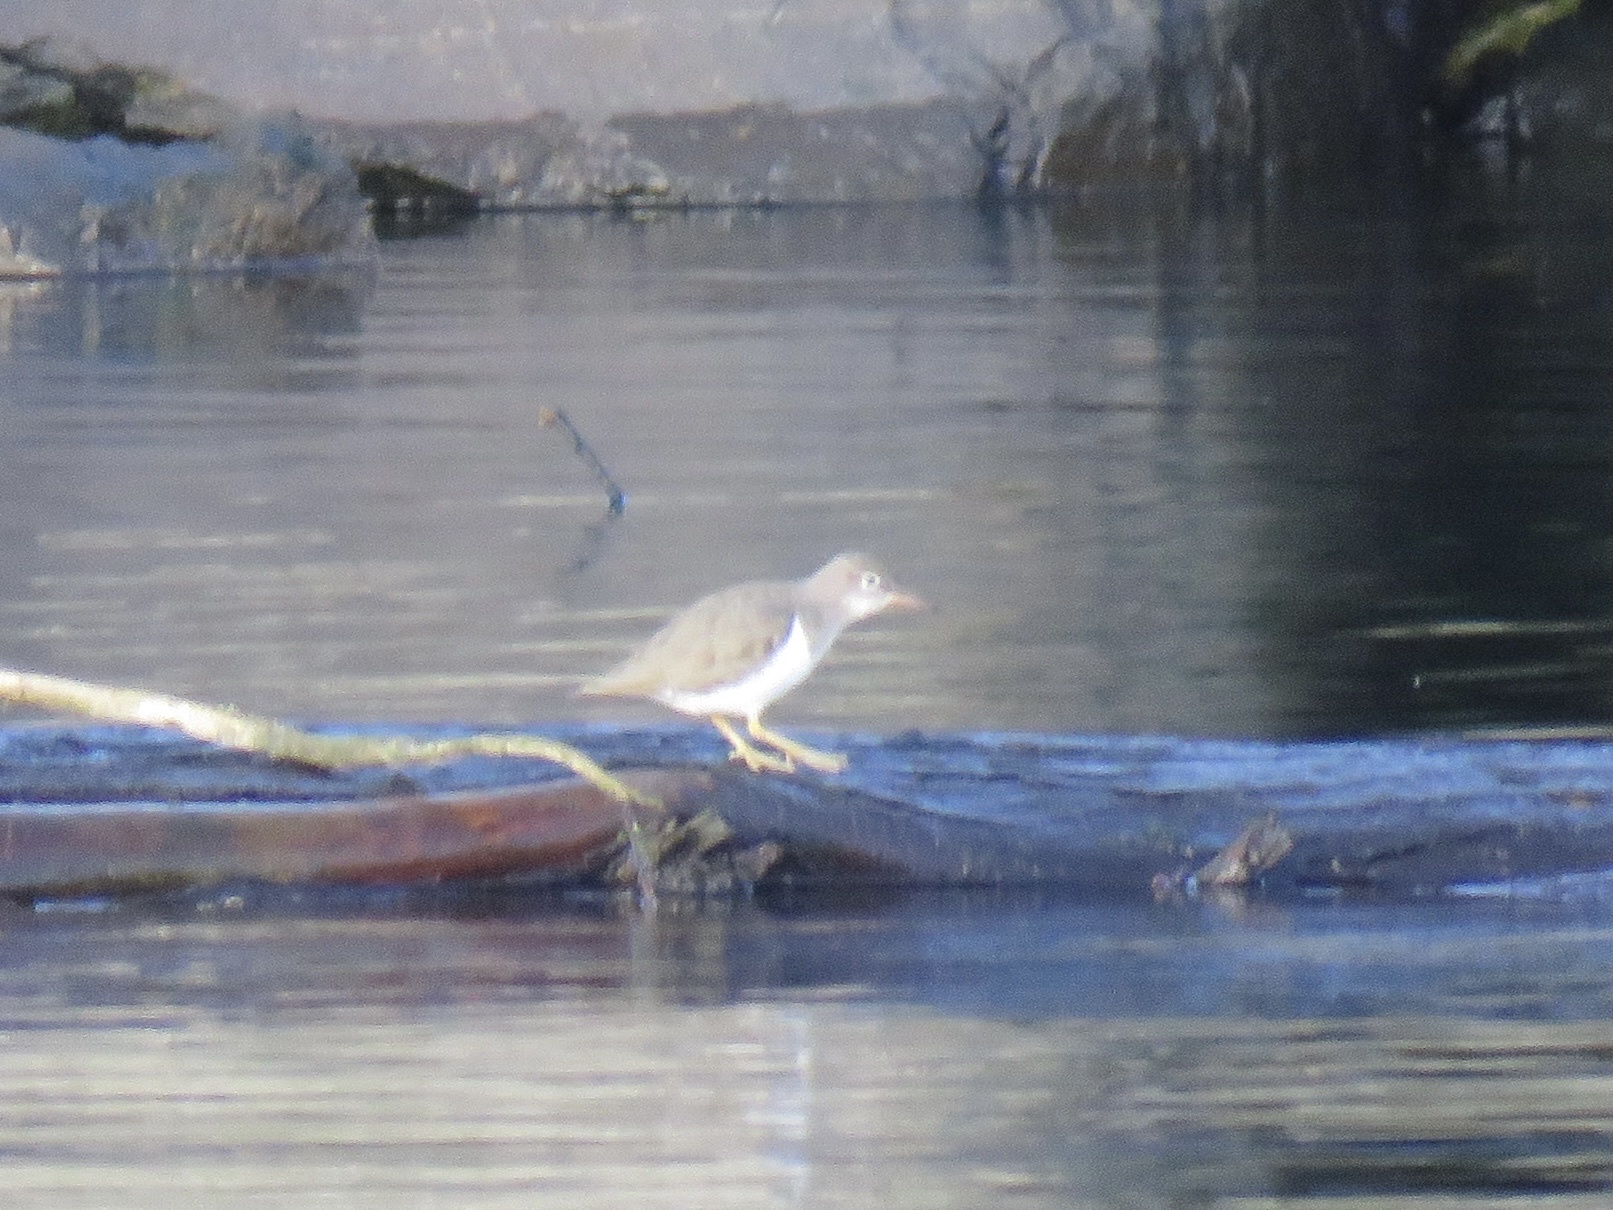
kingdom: Animalia
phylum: Chordata
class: Aves
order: Charadriiformes
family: Scolopacidae
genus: Actitis
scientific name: Actitis macularius
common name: Spotted sandpiper
